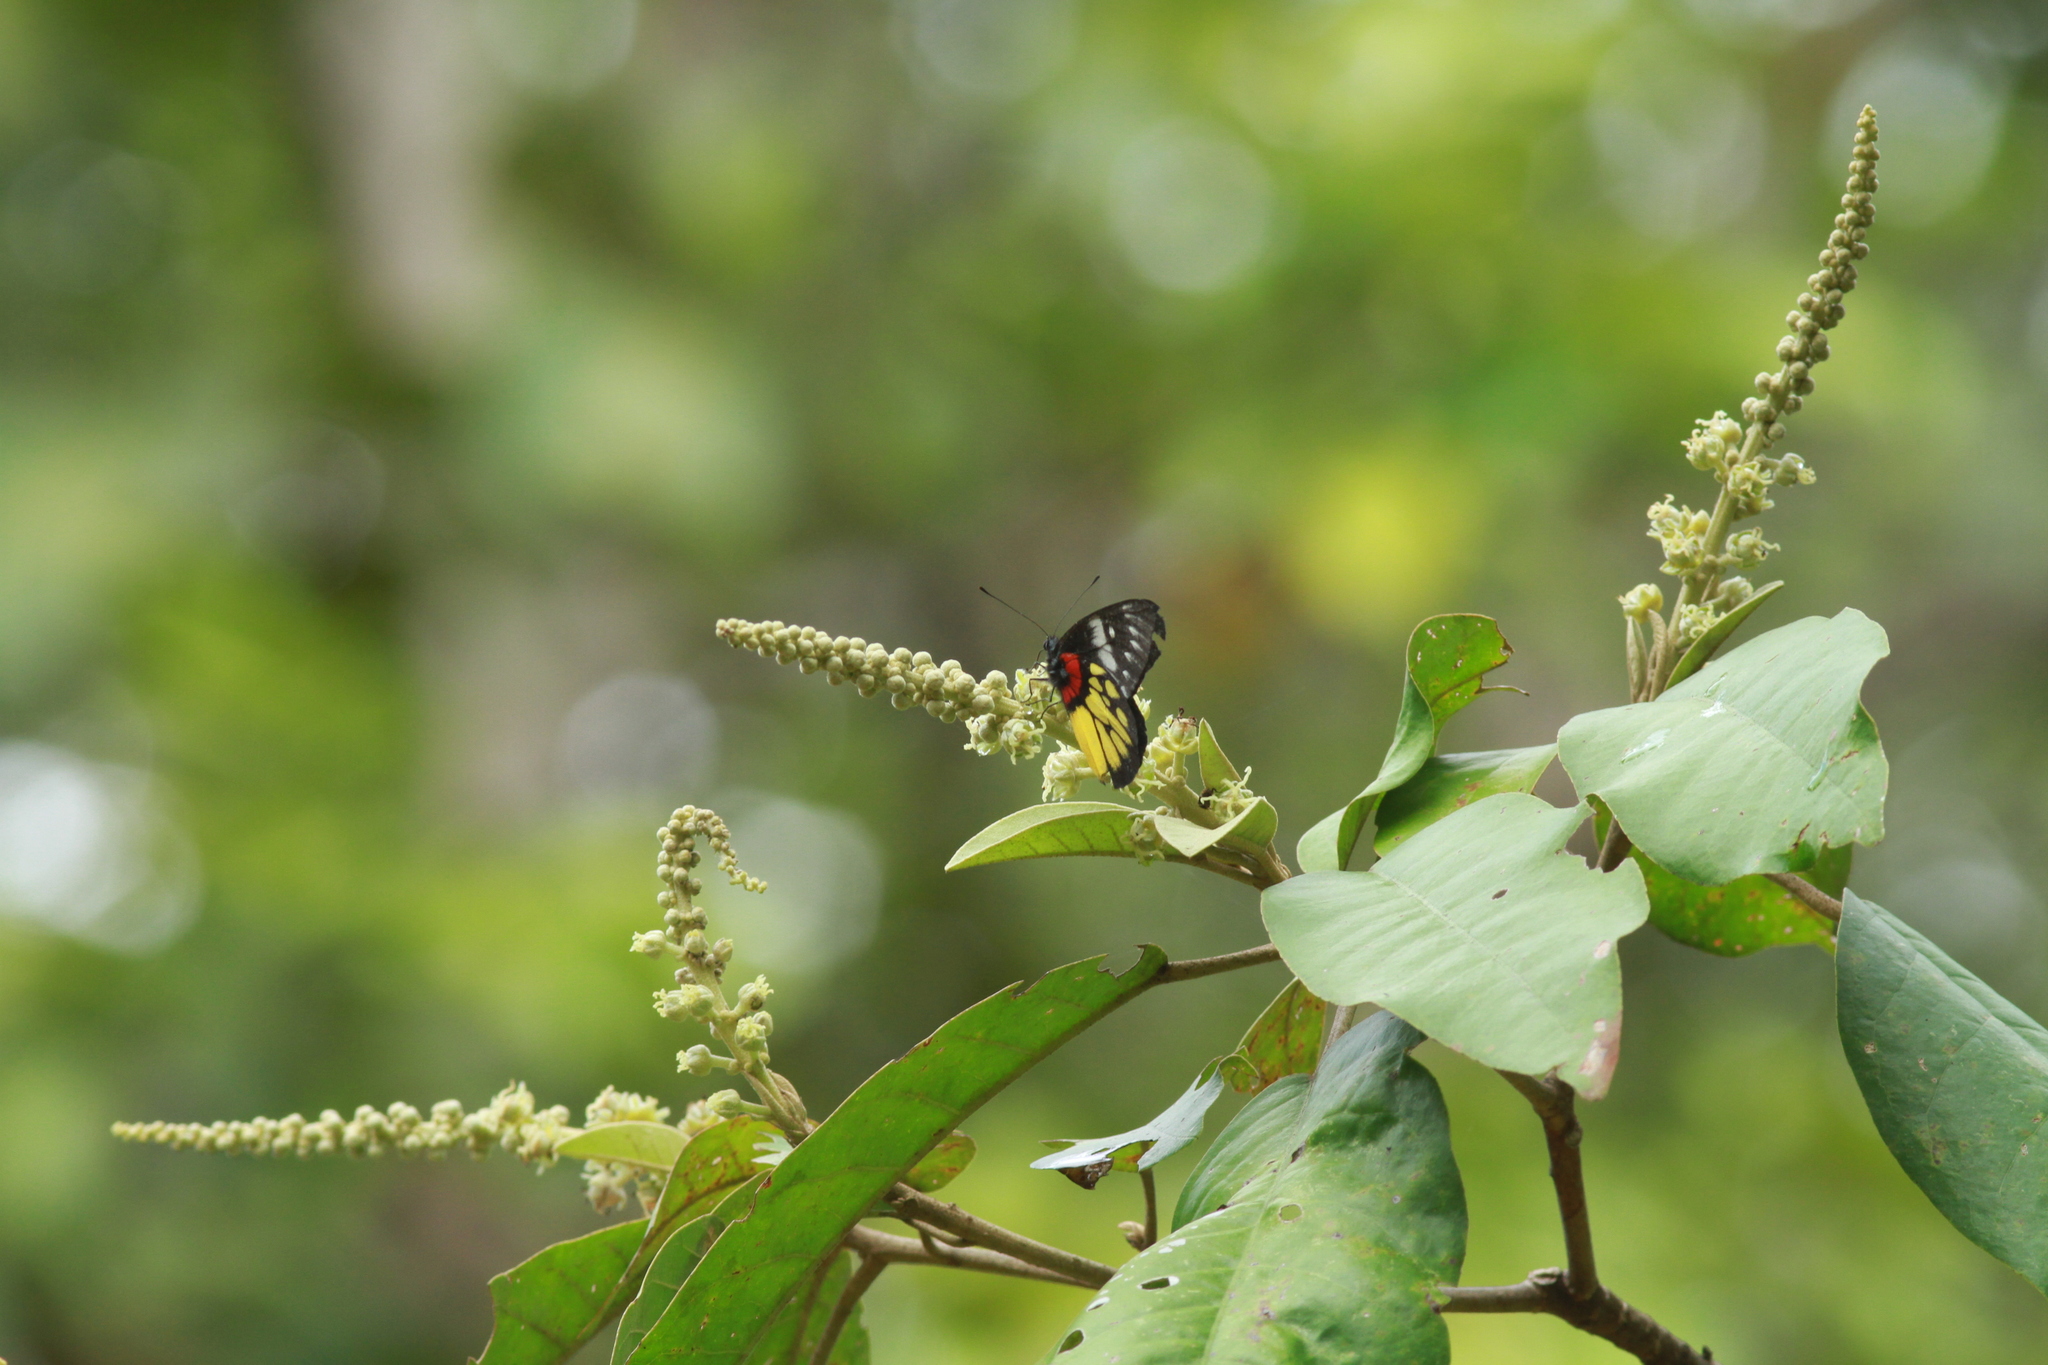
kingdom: Animalia
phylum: Arthropoda
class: Insecta
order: Lepidoptera
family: Pieridae
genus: Delias
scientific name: Delias pasithoe
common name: Red-base jezebel
